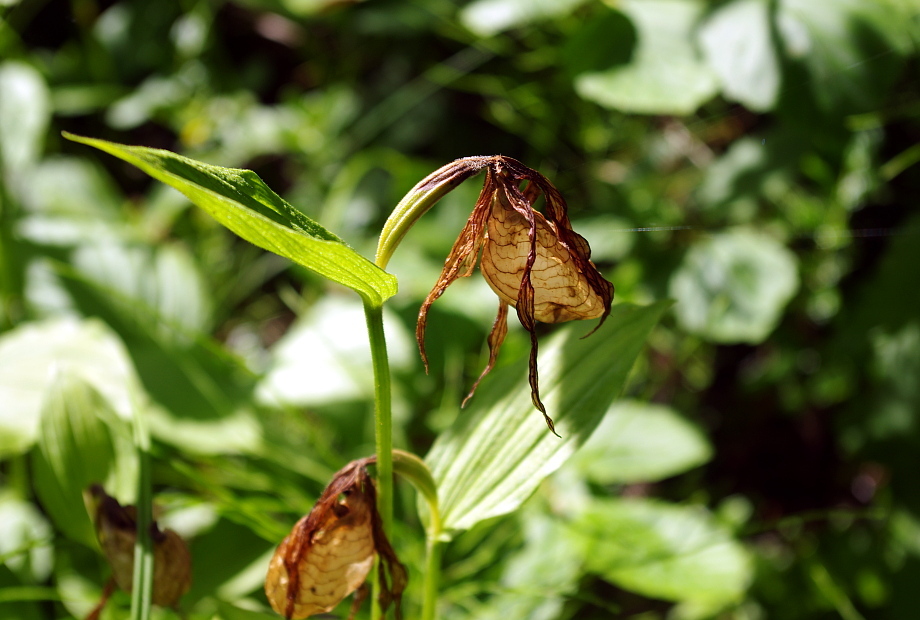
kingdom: Plantae
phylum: Tracheophyta
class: Liliopsida
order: Asparagales
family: Orchidaceae
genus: Cypripedium
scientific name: Cypripedium calceolus
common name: Lady's-slipper
